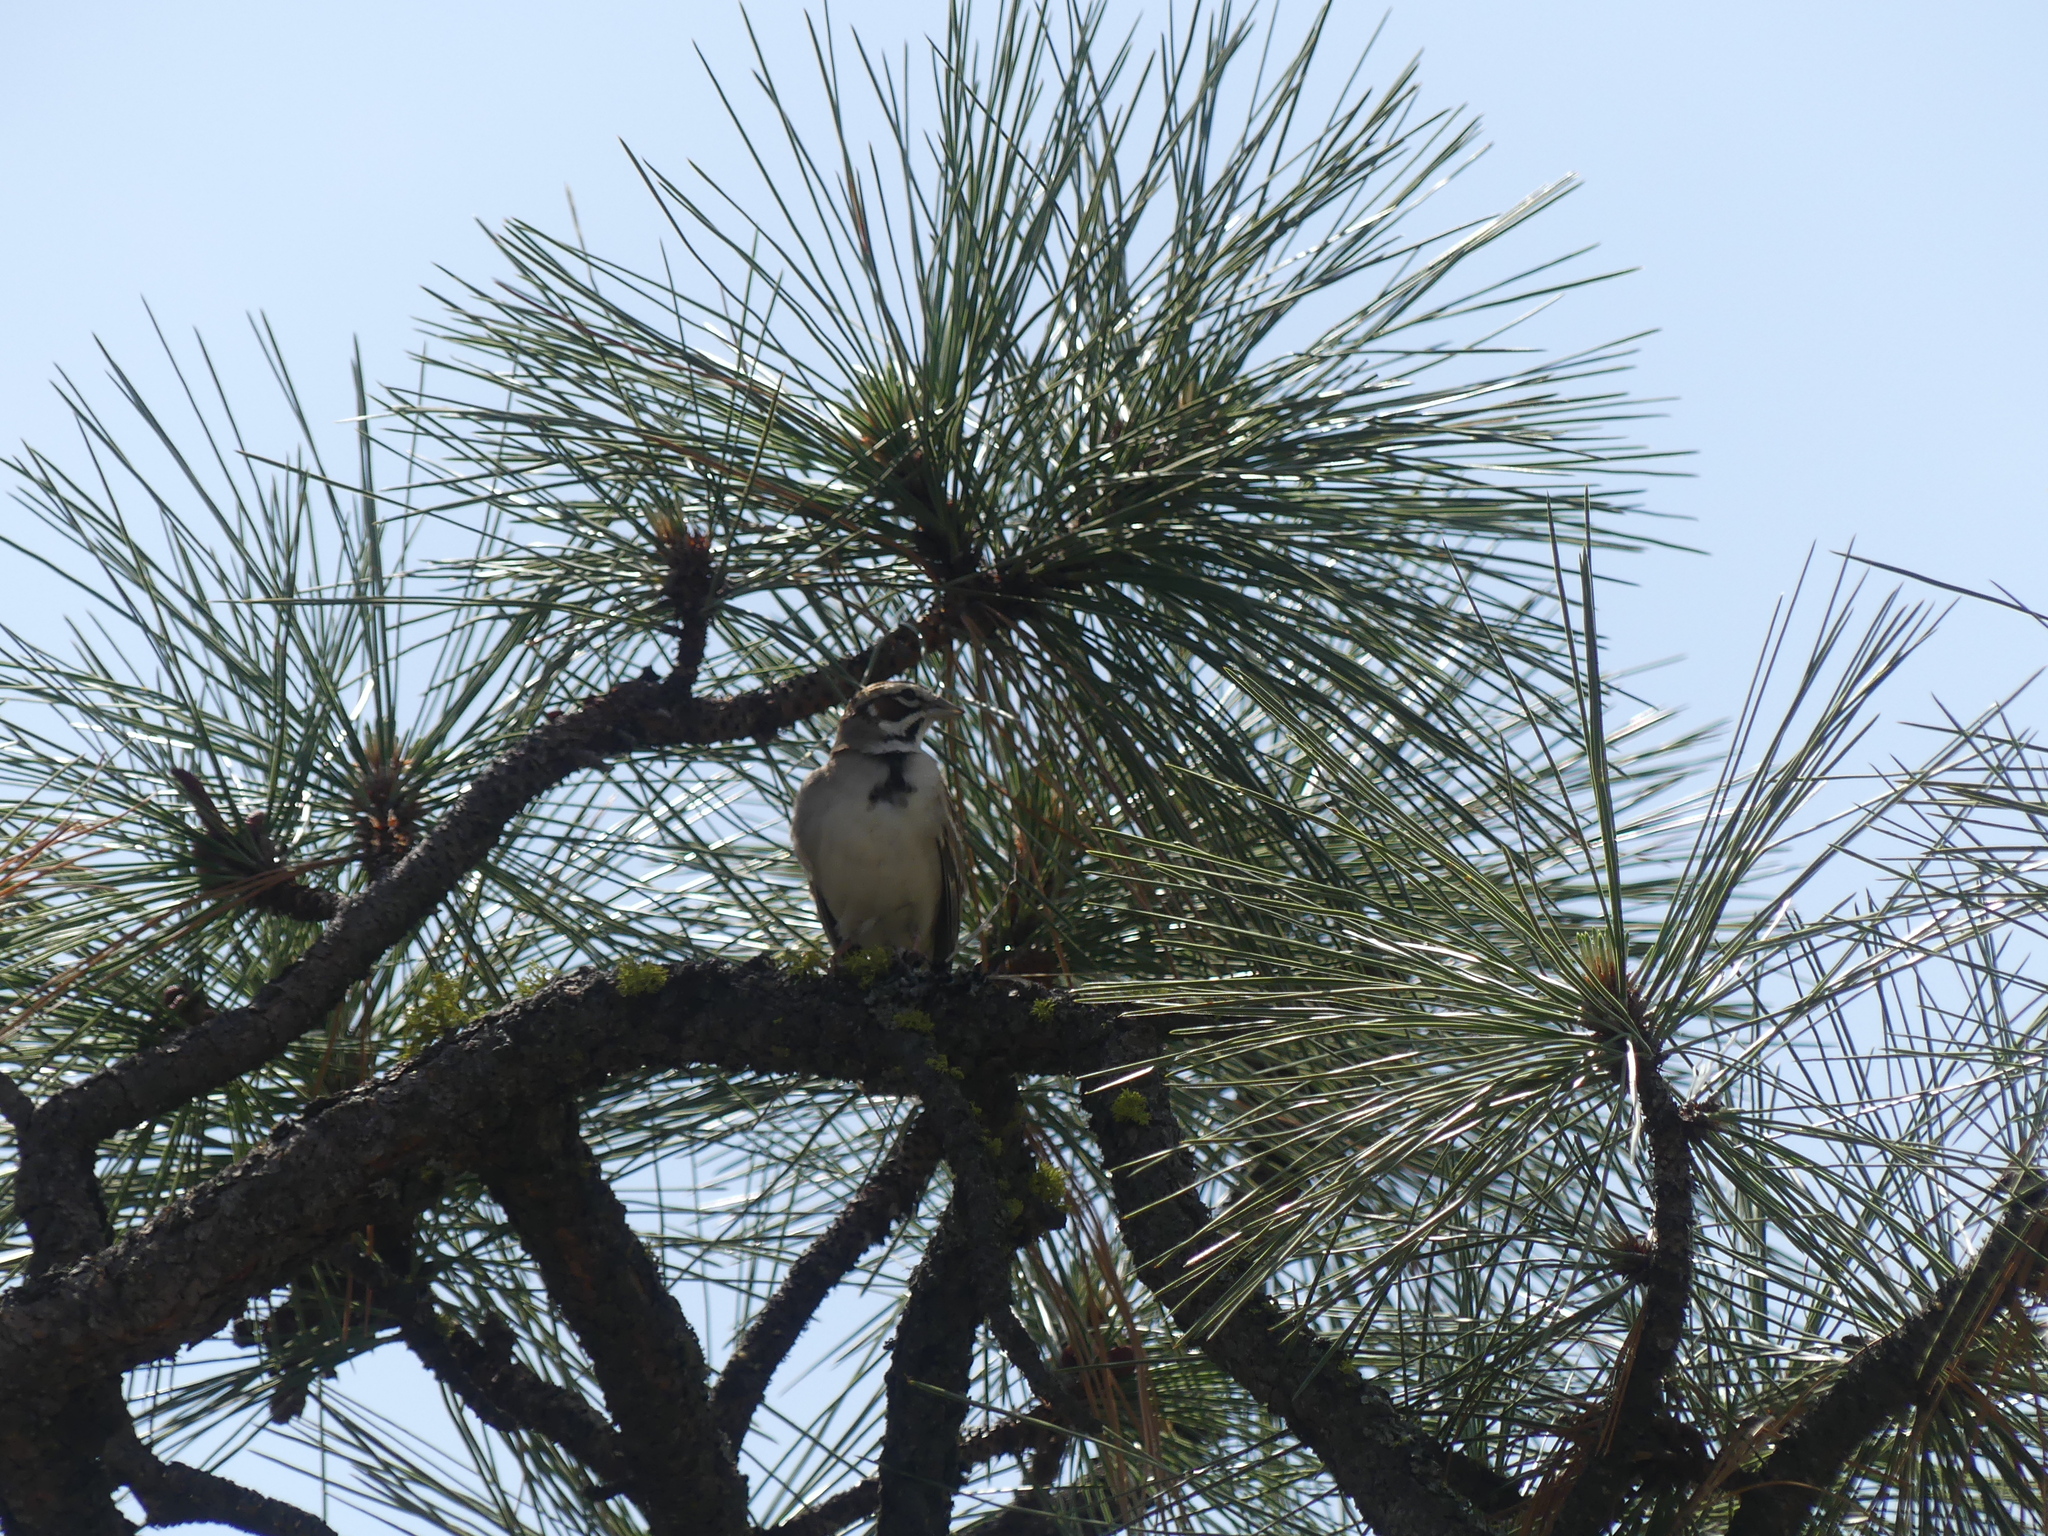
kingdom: Animalia
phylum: Chordata
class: Aves
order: Passeriformes
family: Passerellidae
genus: Chondestes
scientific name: Chondestes grammacus
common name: Lark sparrow
